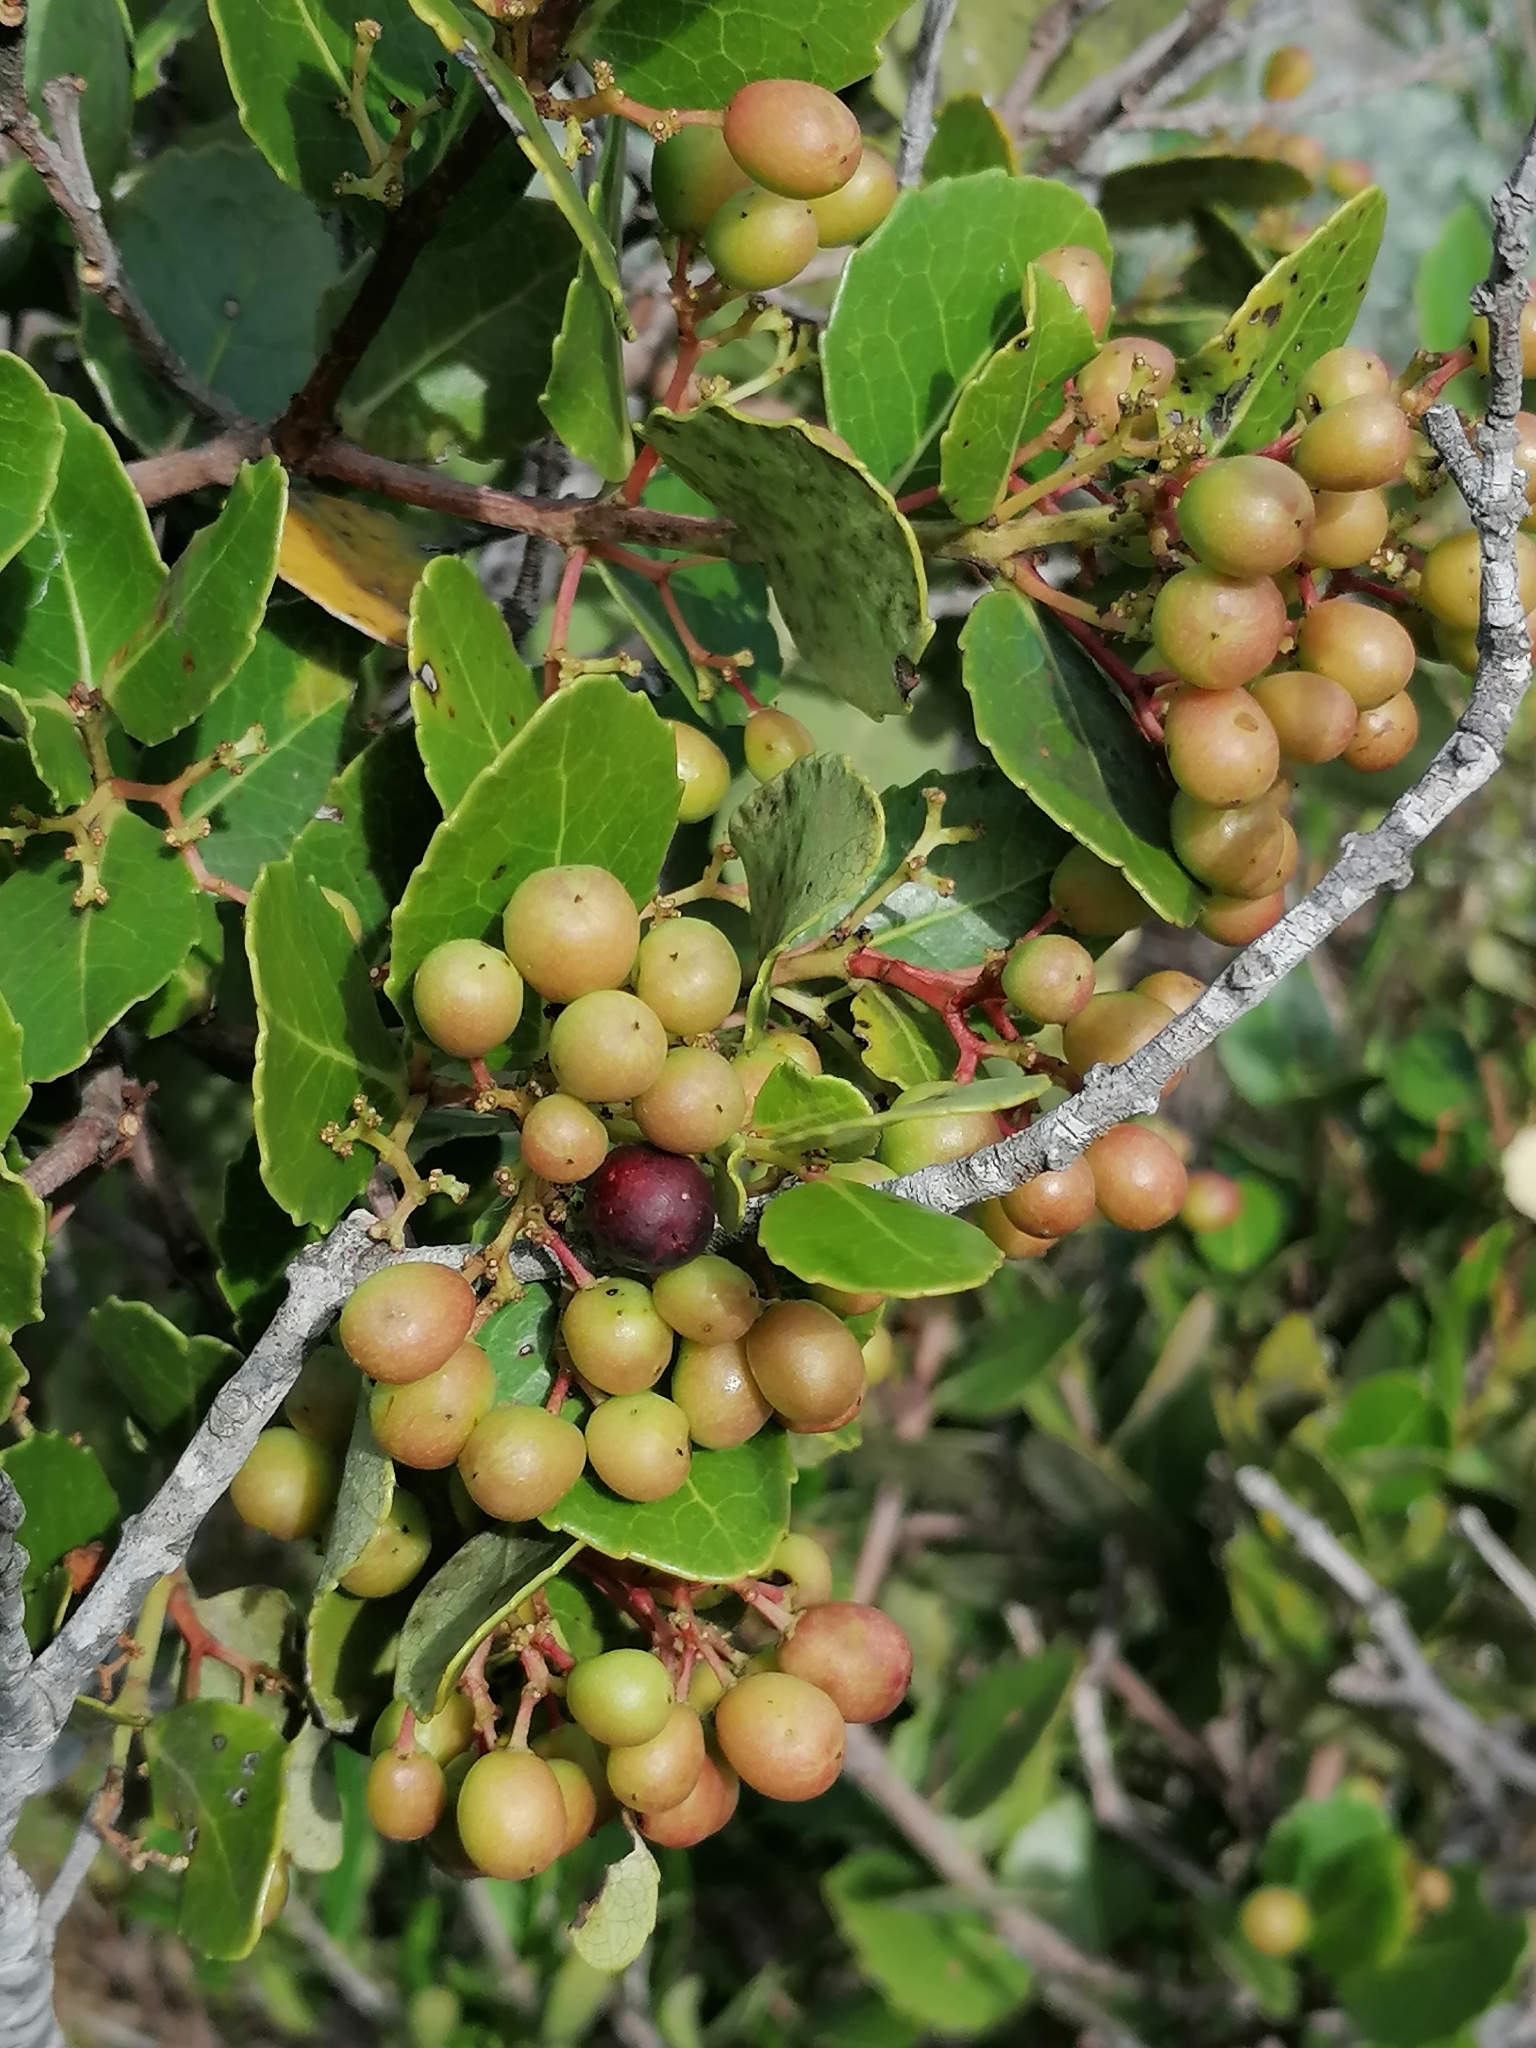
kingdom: Plantae
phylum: Tracheophyta
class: Magnoliopsida
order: Celastrales
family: Celastraceae
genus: Cassine
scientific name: Cassine peragua
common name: Cape saffron
